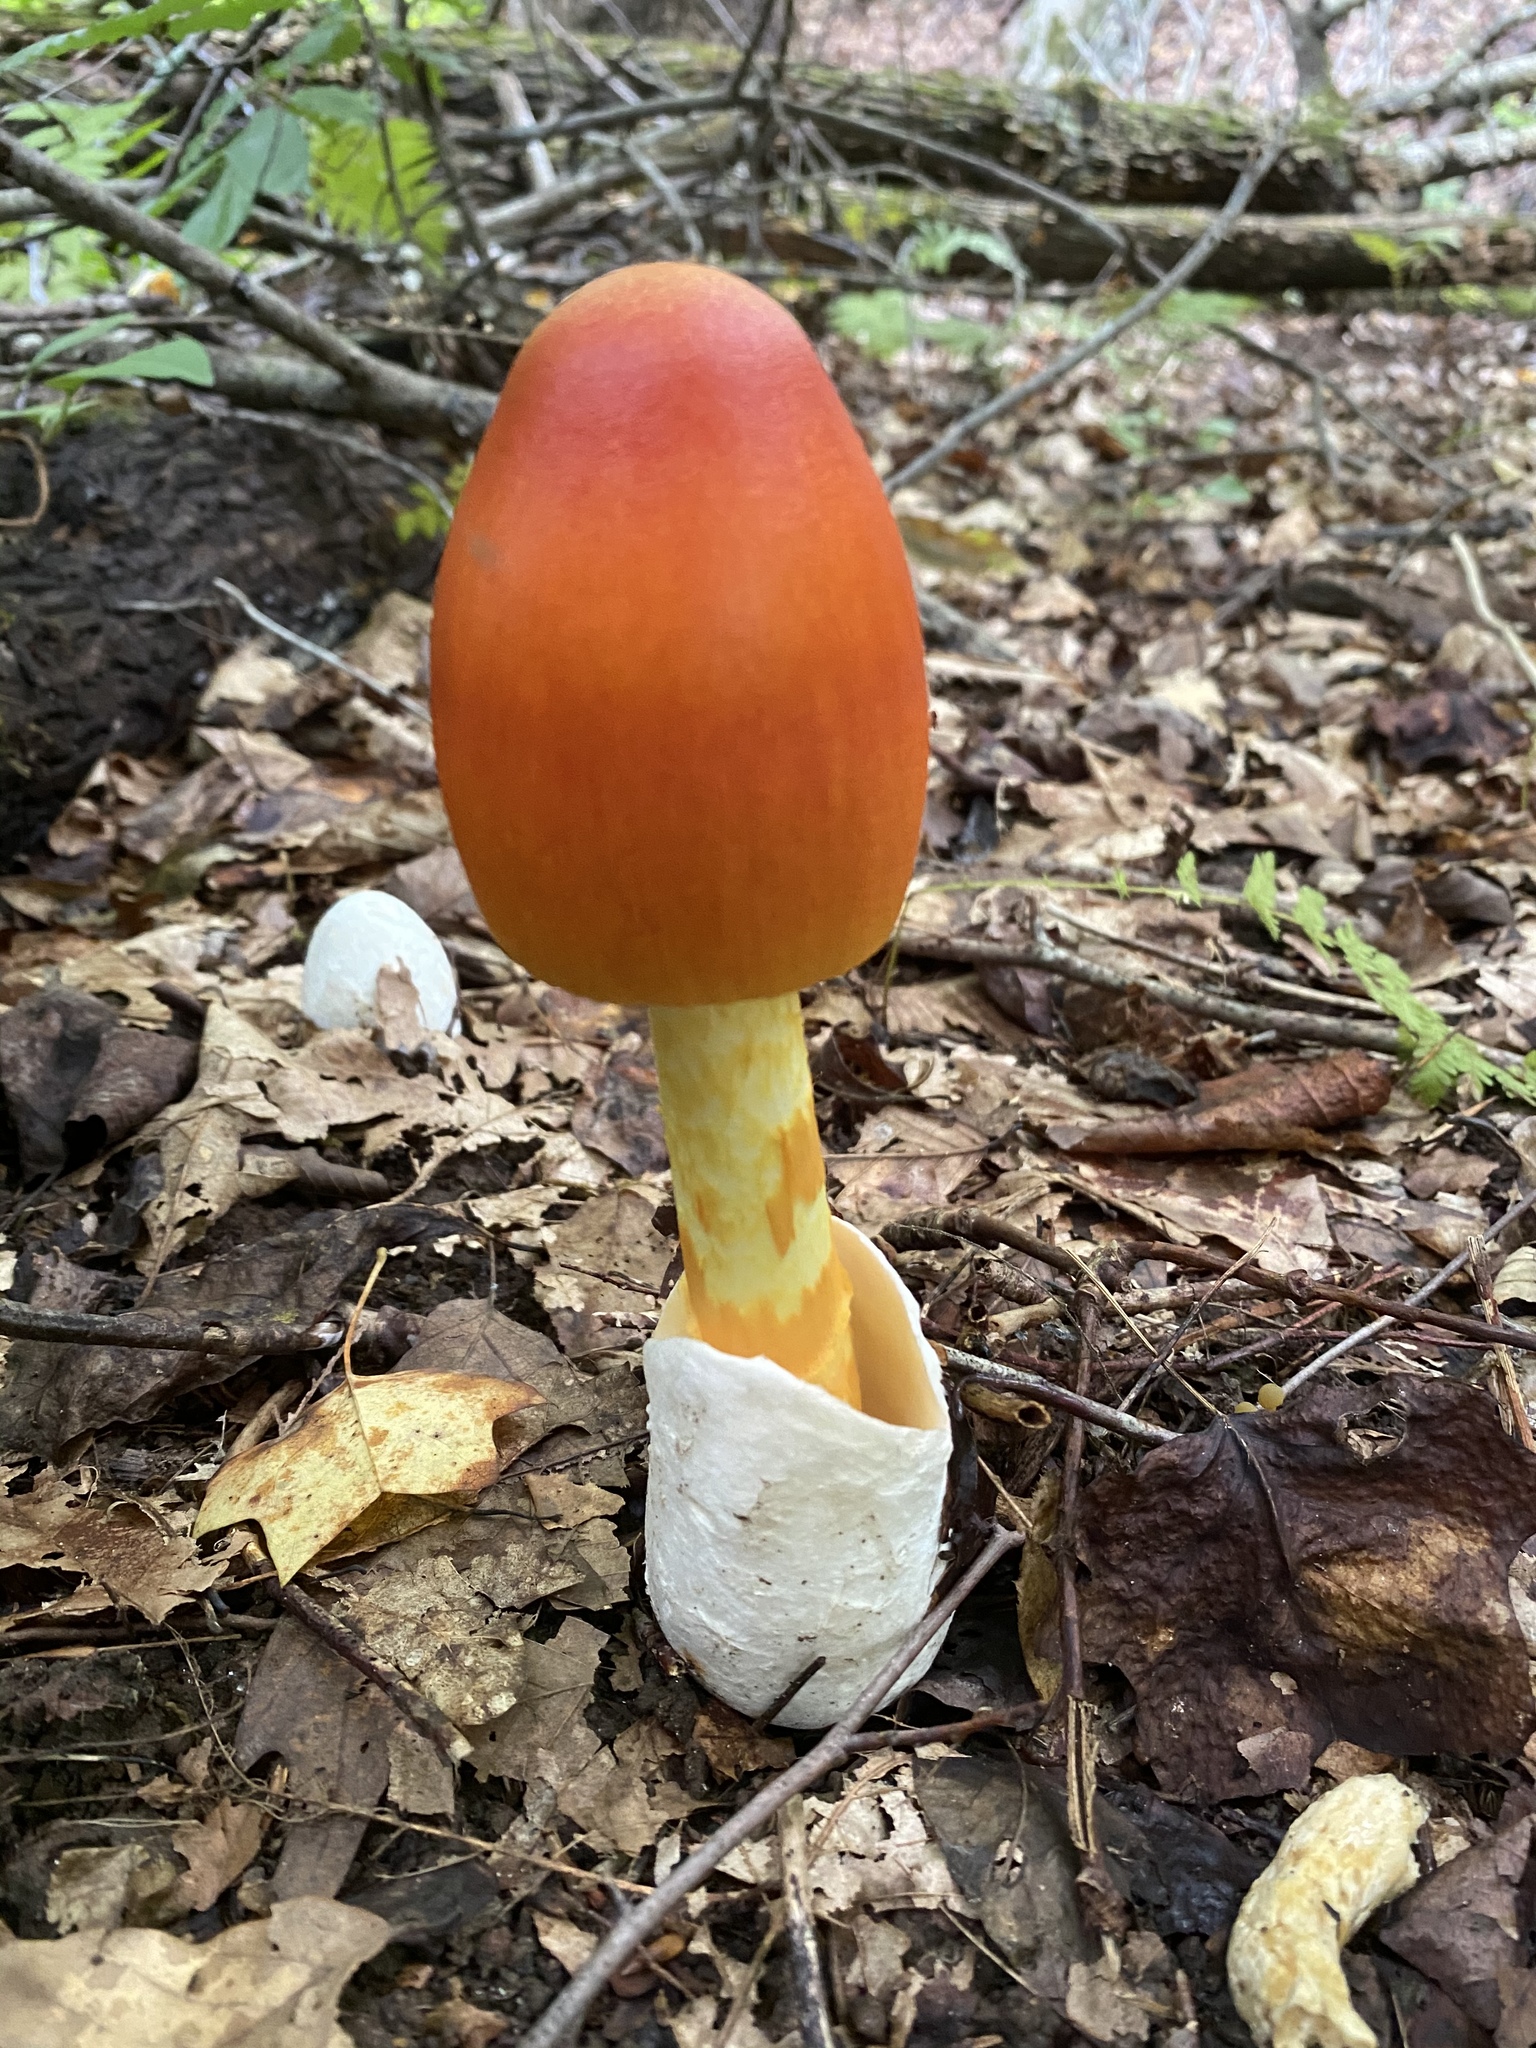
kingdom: Fungi
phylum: Basidiomycota
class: Agaricomycetes
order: Agaricales
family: Amanitaceae
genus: Amanita
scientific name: Amanita jacksonii
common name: Jackson's slender caesar
